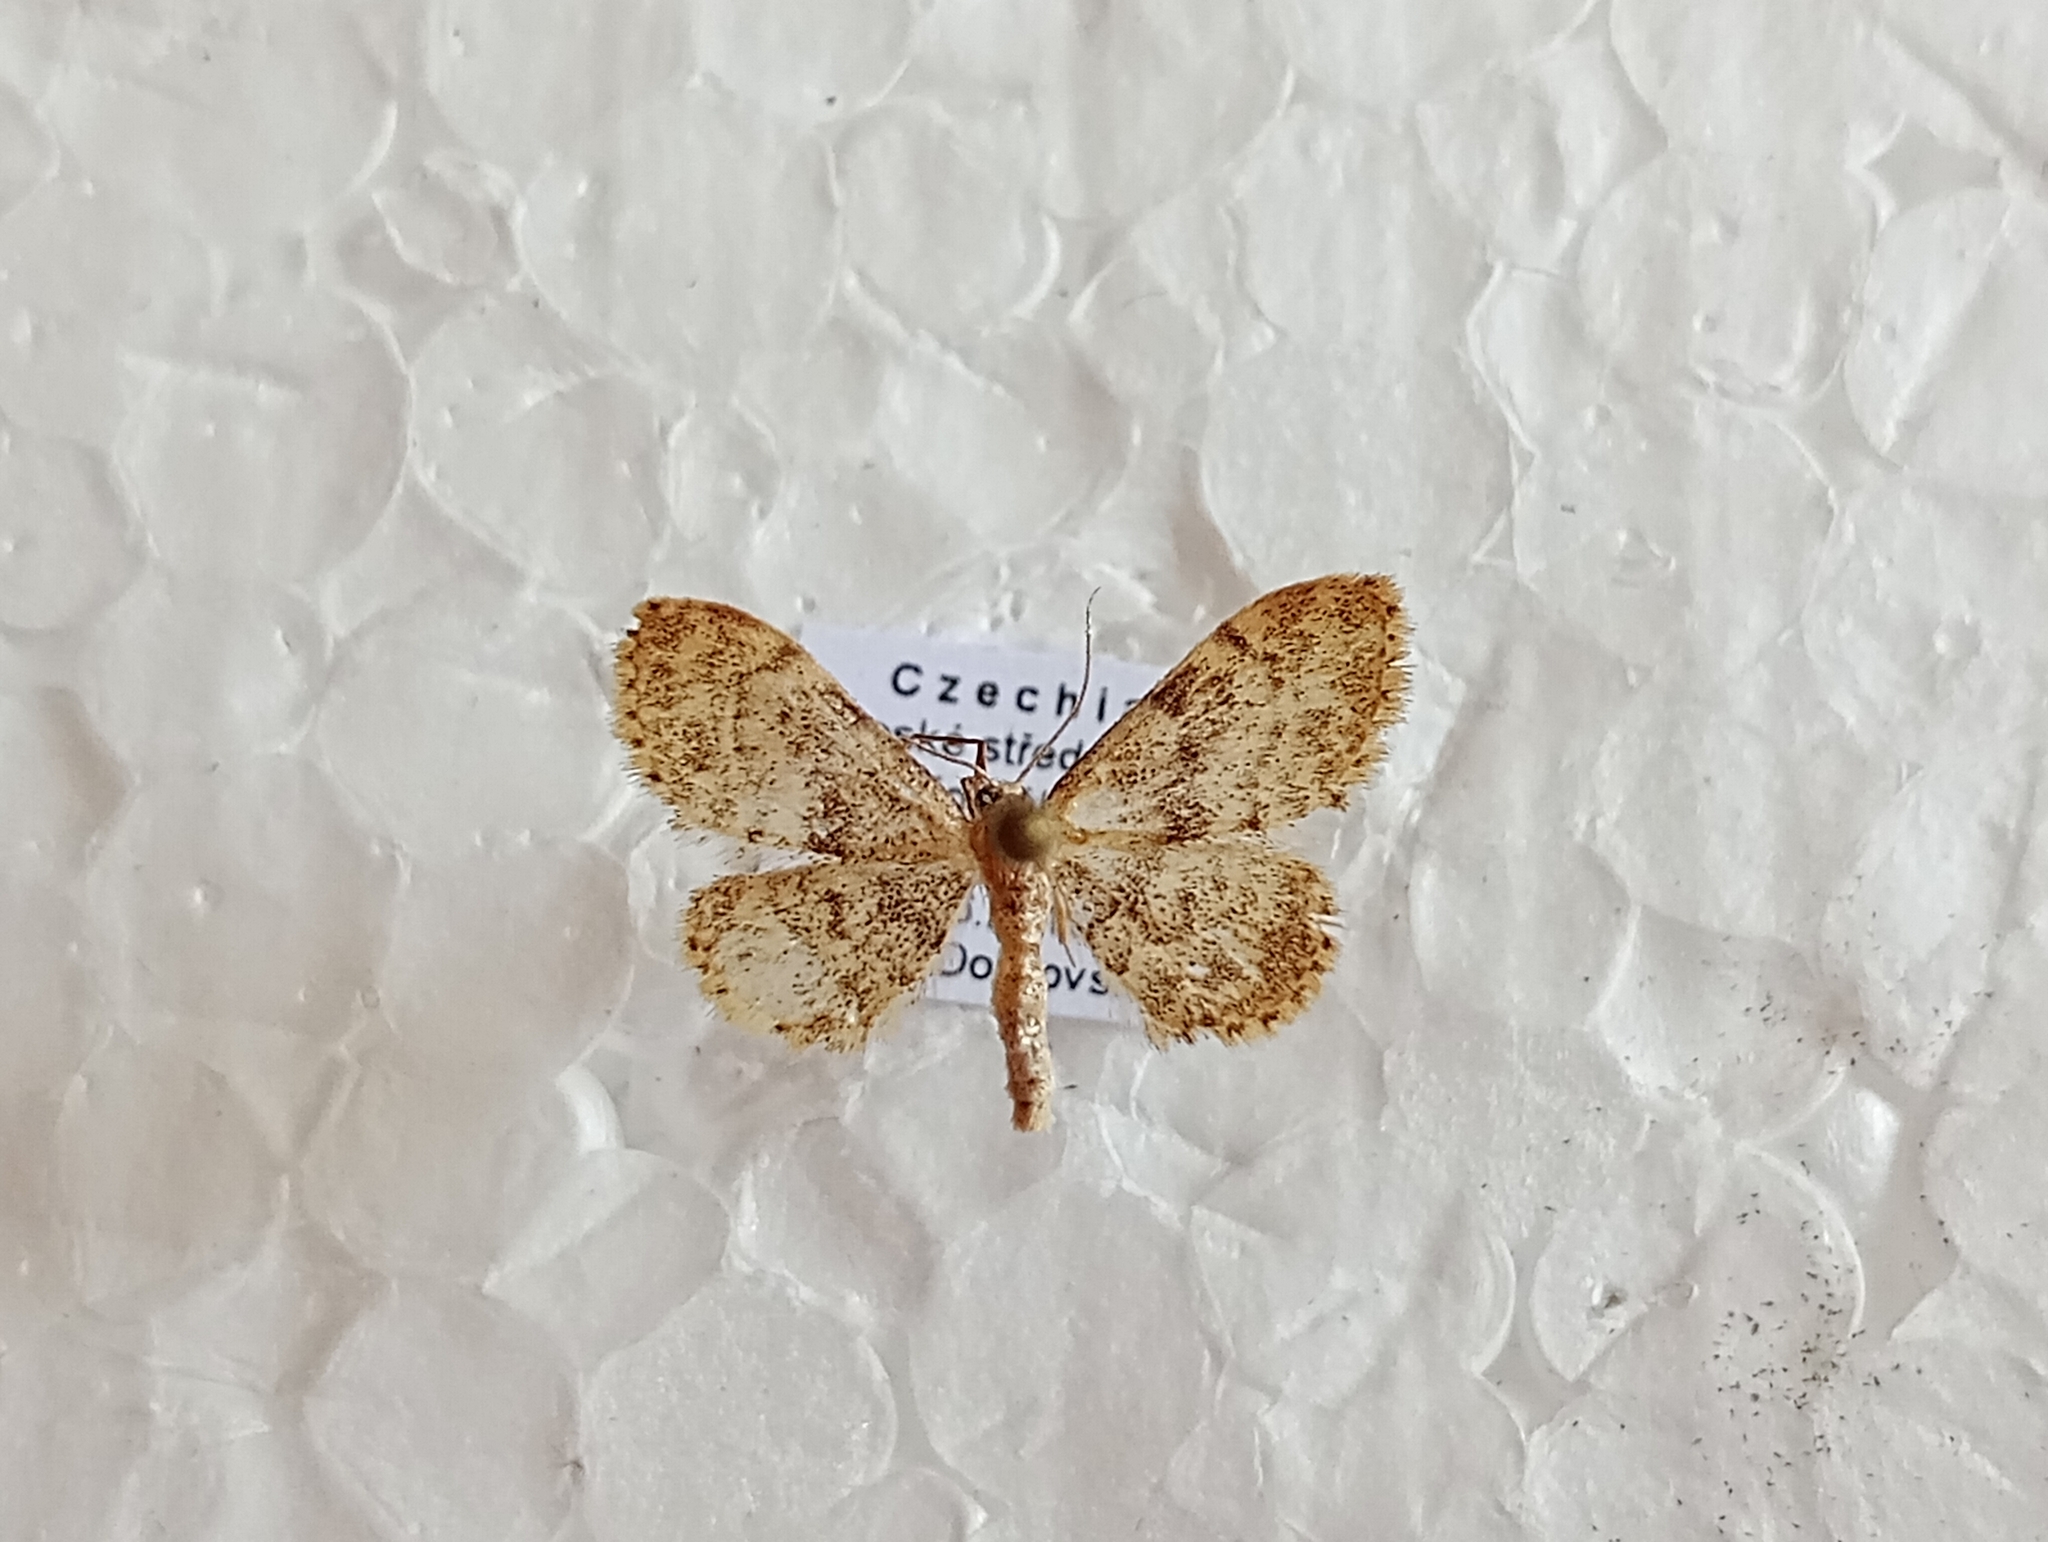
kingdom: Animalia
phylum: Arthropoda
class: Insecta
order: Lepidoptera
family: Geometridae
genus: Idaea
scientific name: Idaea inquinata
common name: Rusty wave
